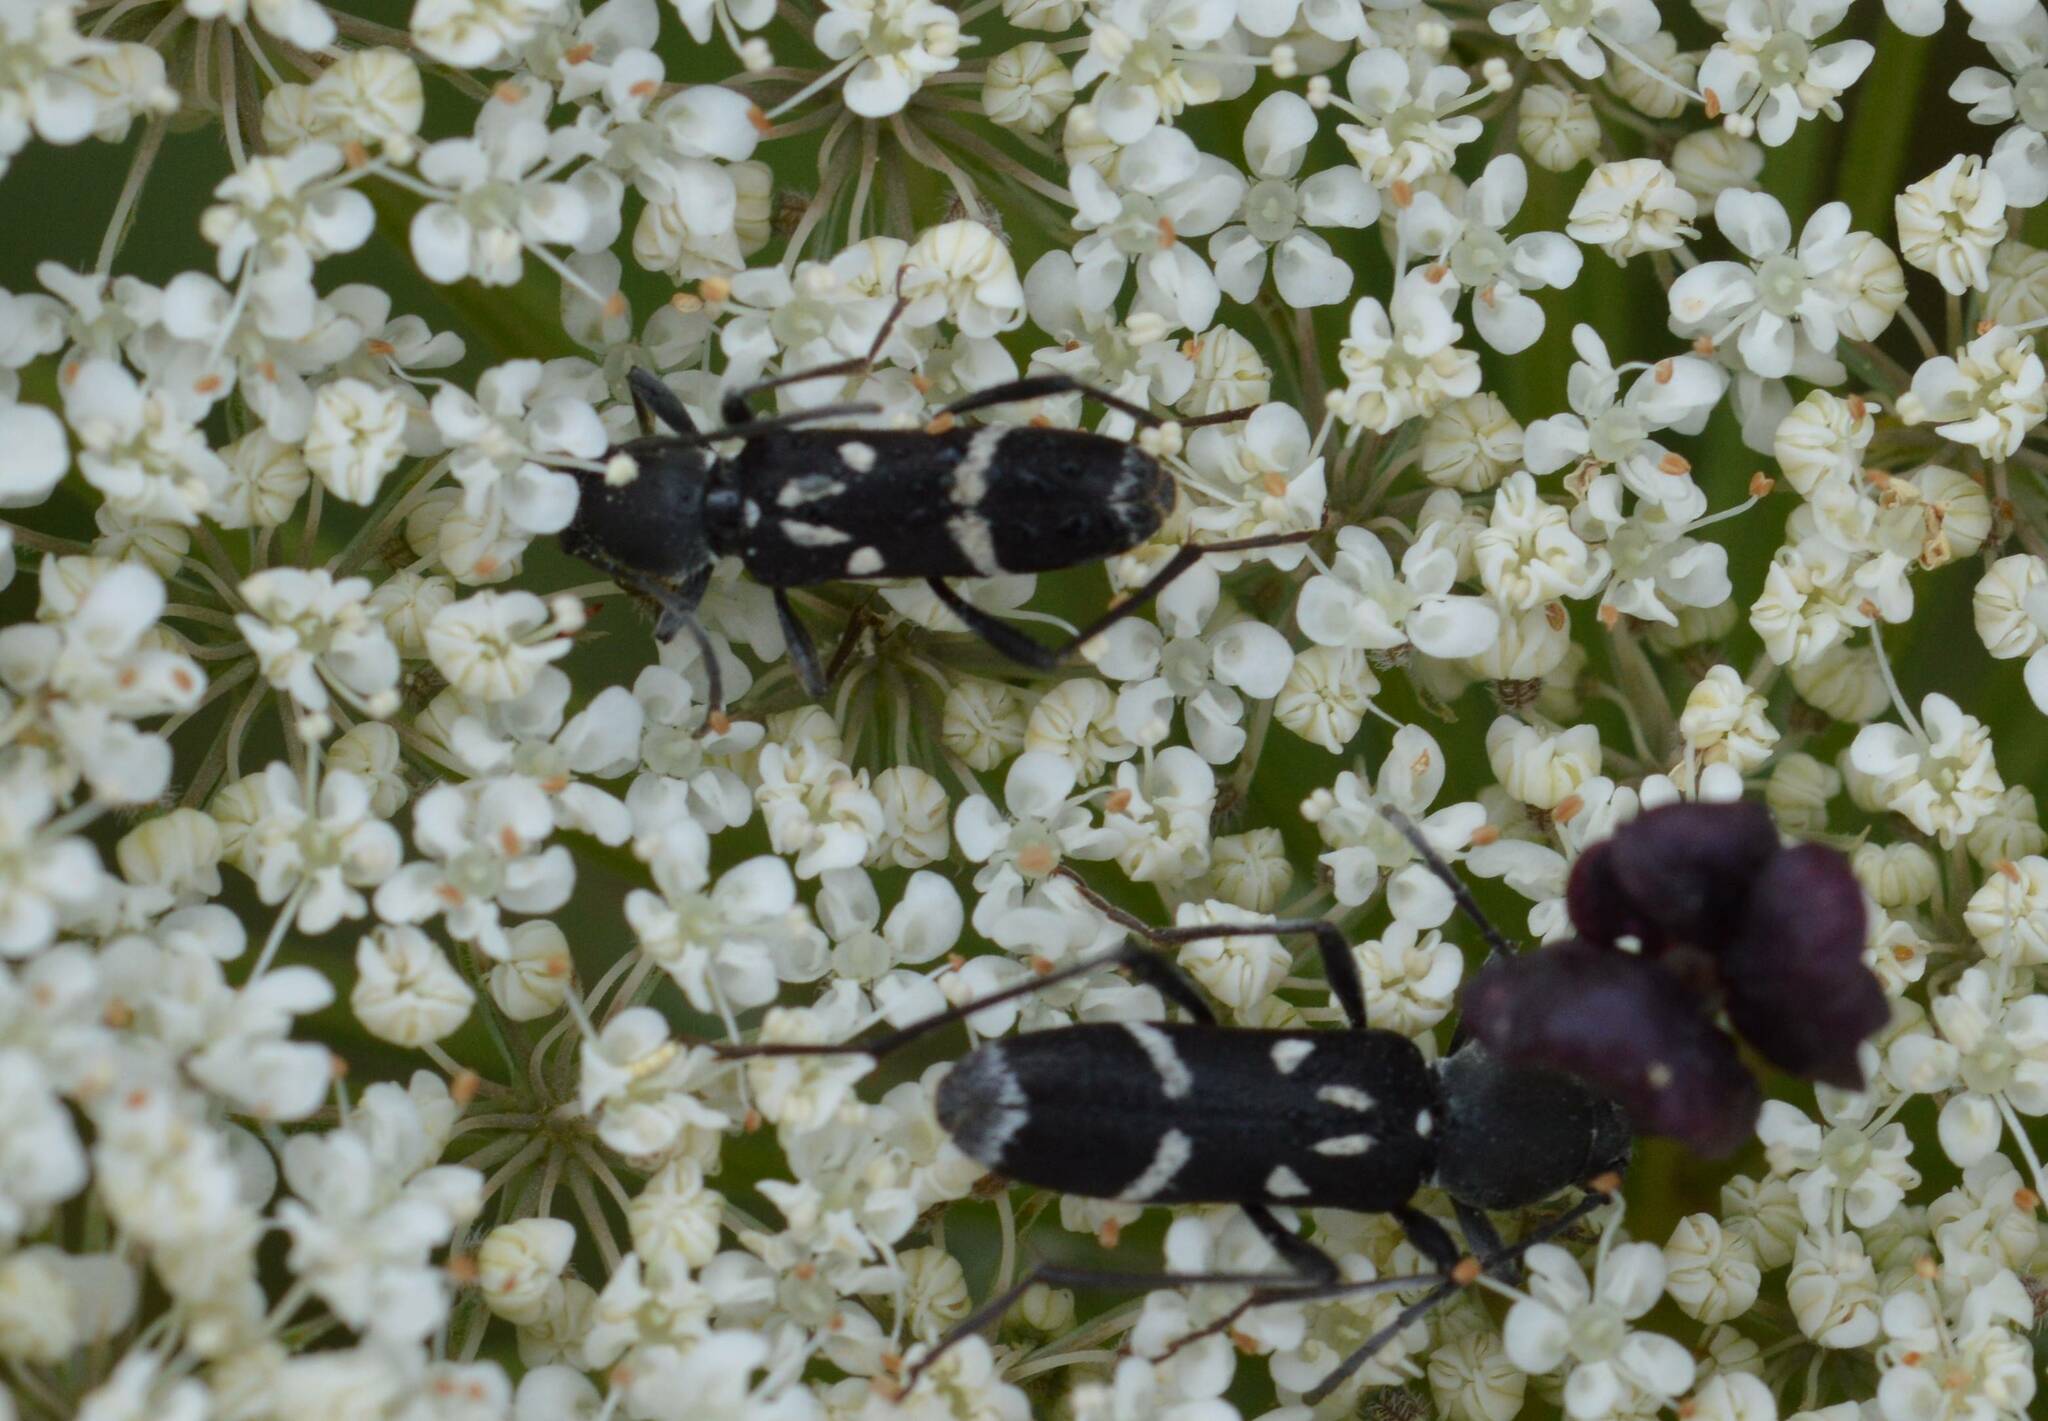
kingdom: Animalia
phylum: Arthropoda
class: Insecta
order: Coleoptera
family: Cerambycidae
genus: Chlorophorus
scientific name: Chlorophorus pelleteri
